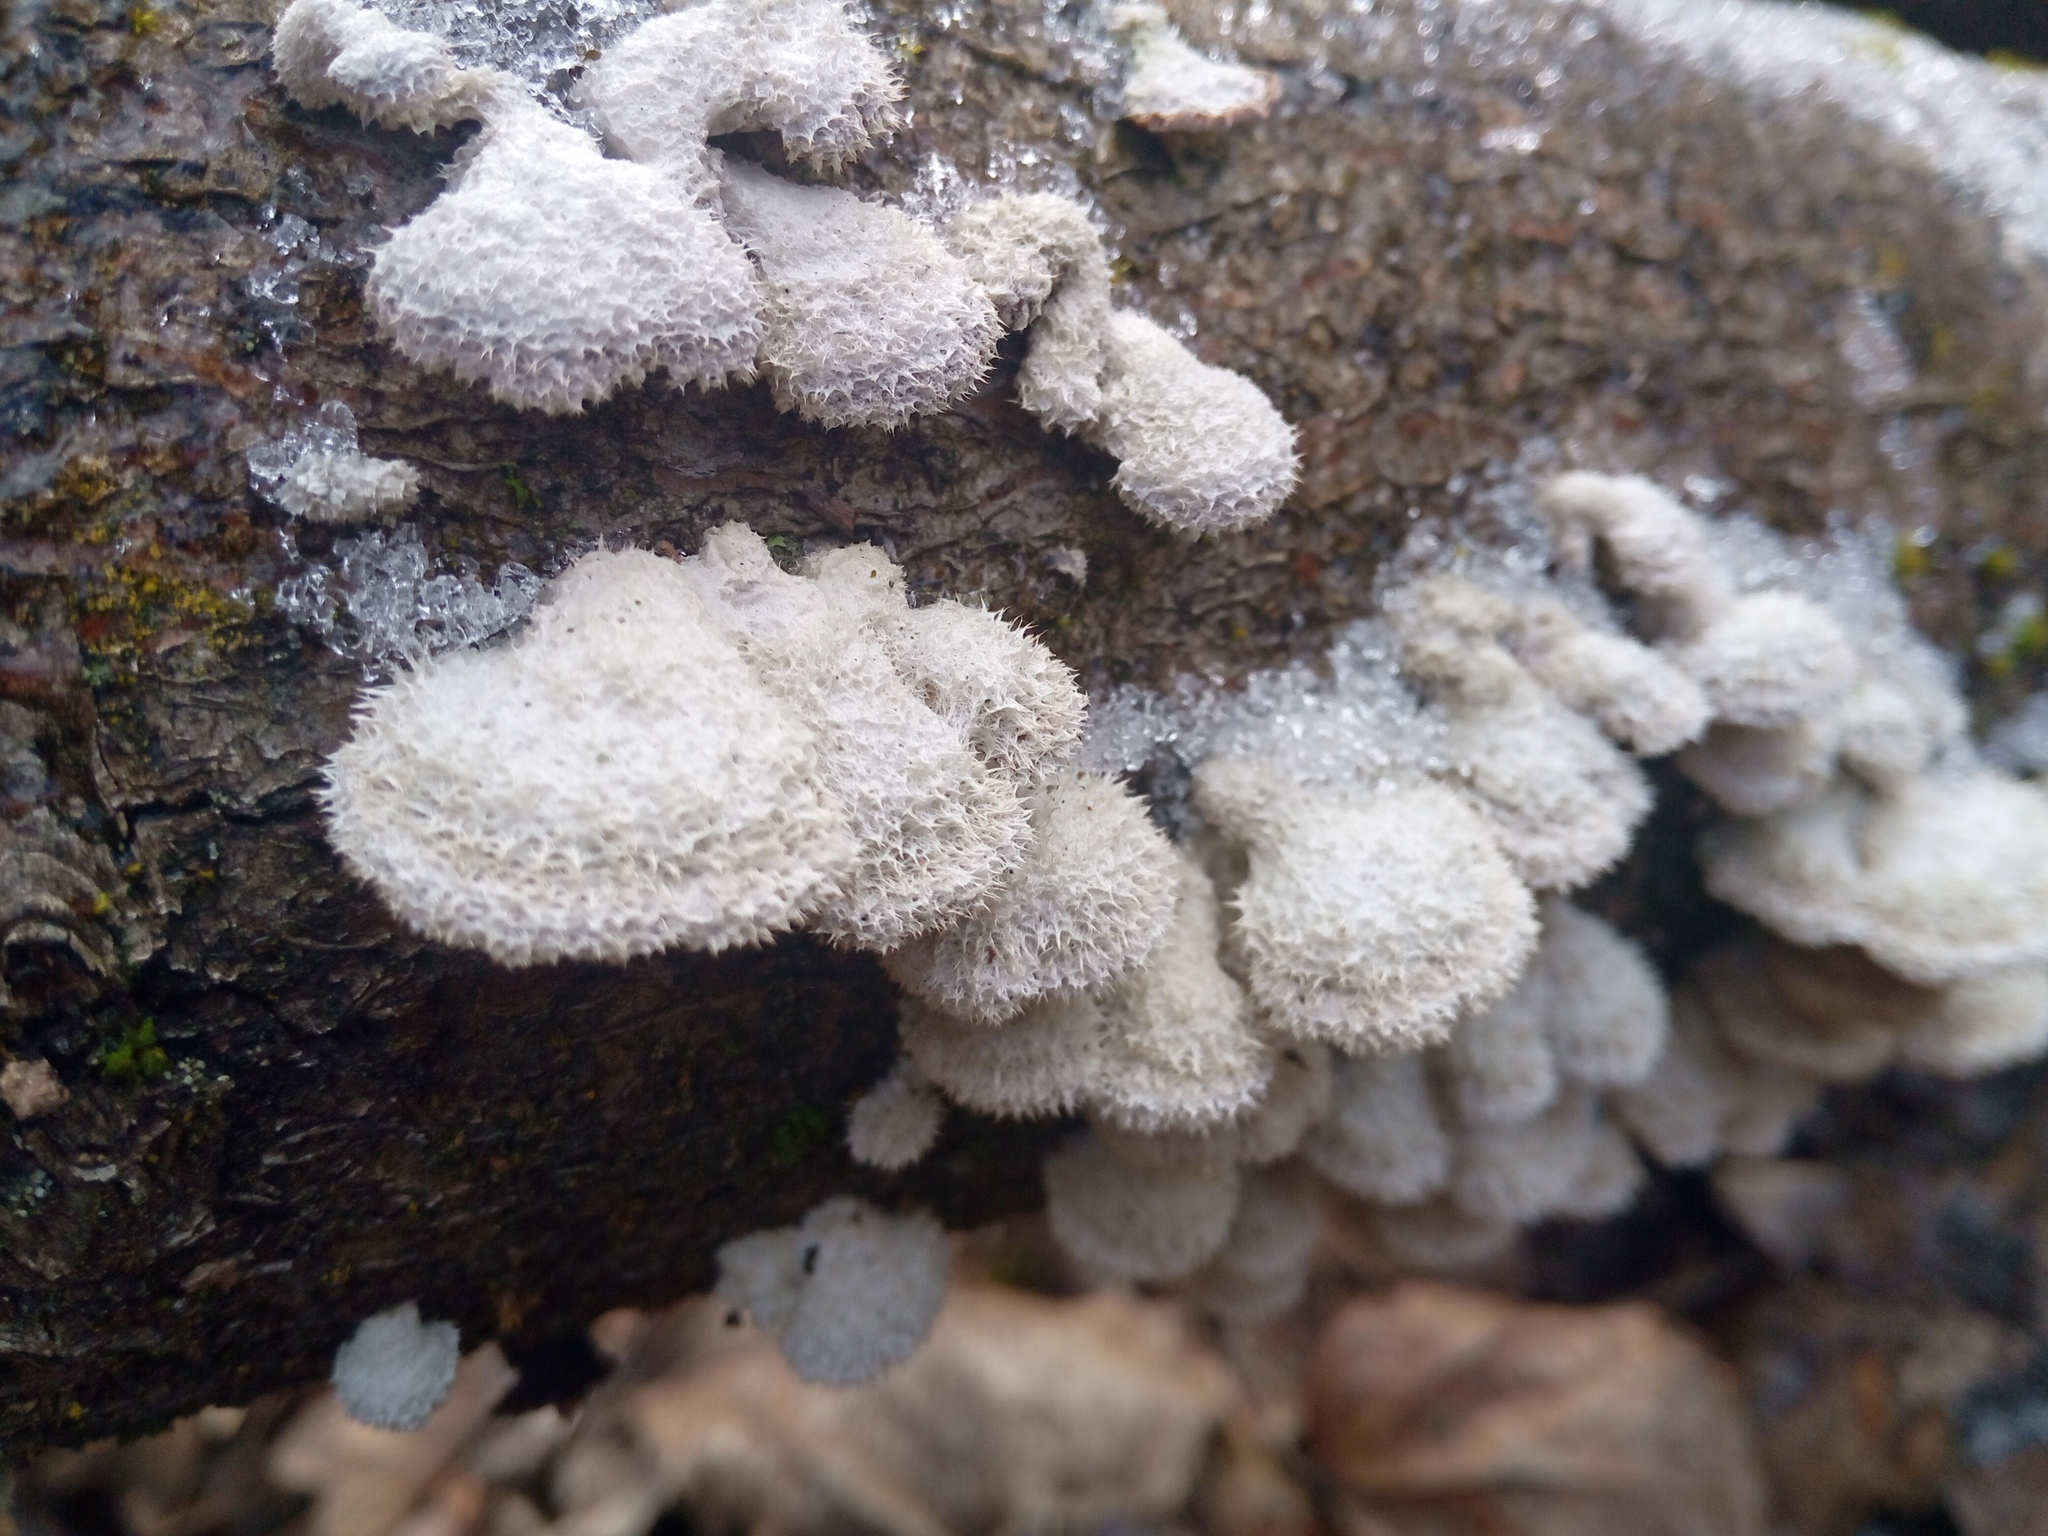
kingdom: Fungi
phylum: Basidiomycota
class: Agaricomycetes
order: Agaricales
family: Schizophyllaceae
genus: Schizophyllum
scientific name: Schizophyllum commune
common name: Common porecrust
